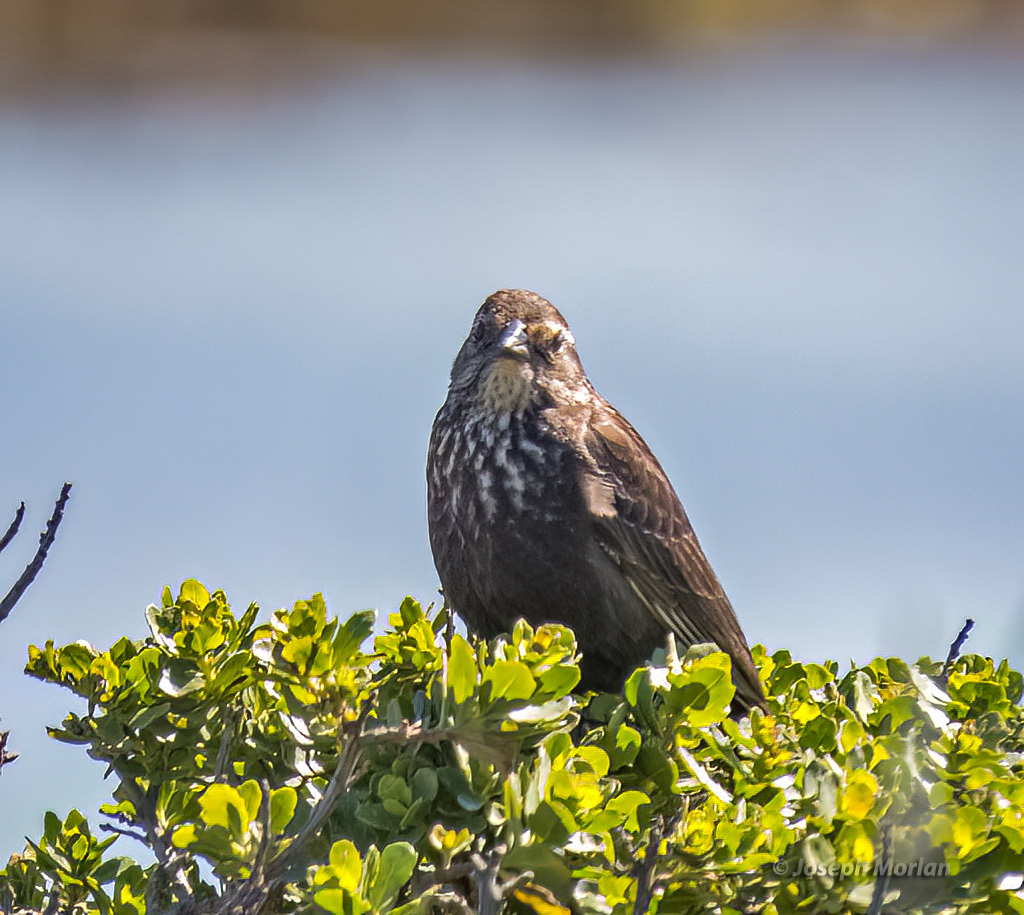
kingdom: Animalia
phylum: Chordata
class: Aves
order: Passeriformes
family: Icteridae
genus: Agelaius
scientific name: Agelaius phoeniceus
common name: Red-winged blackbird
